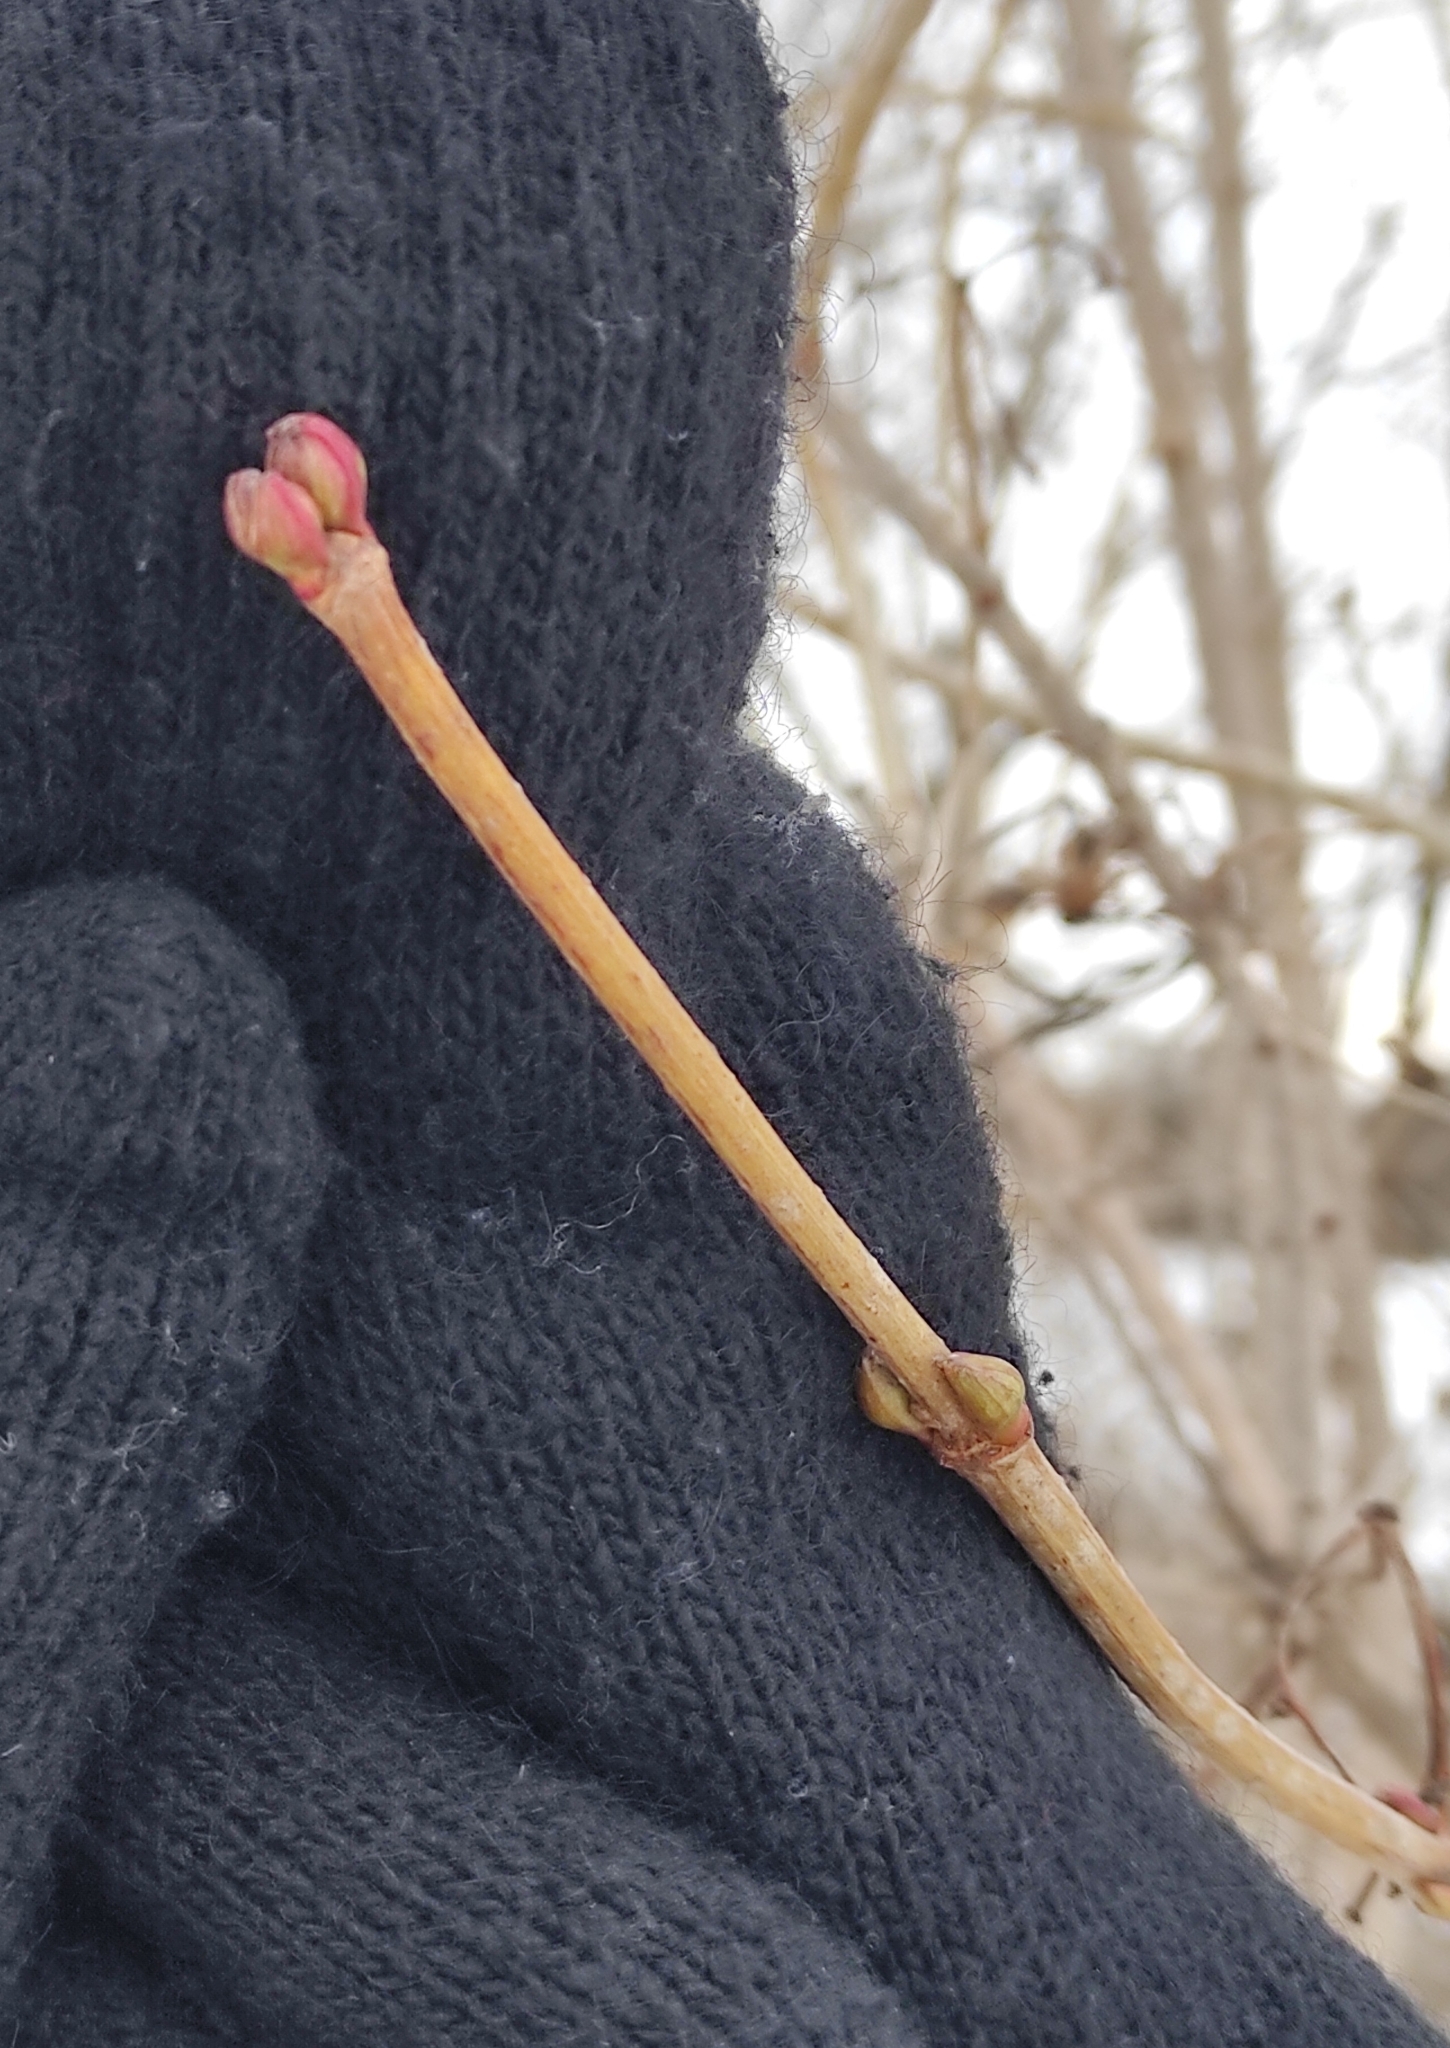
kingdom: Plantae
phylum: Tracheophyta
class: Magnoliopsida
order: Dipsacales
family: Viburnaceae
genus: Viburnum
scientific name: Viburnum opulus
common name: Guelder-rose
